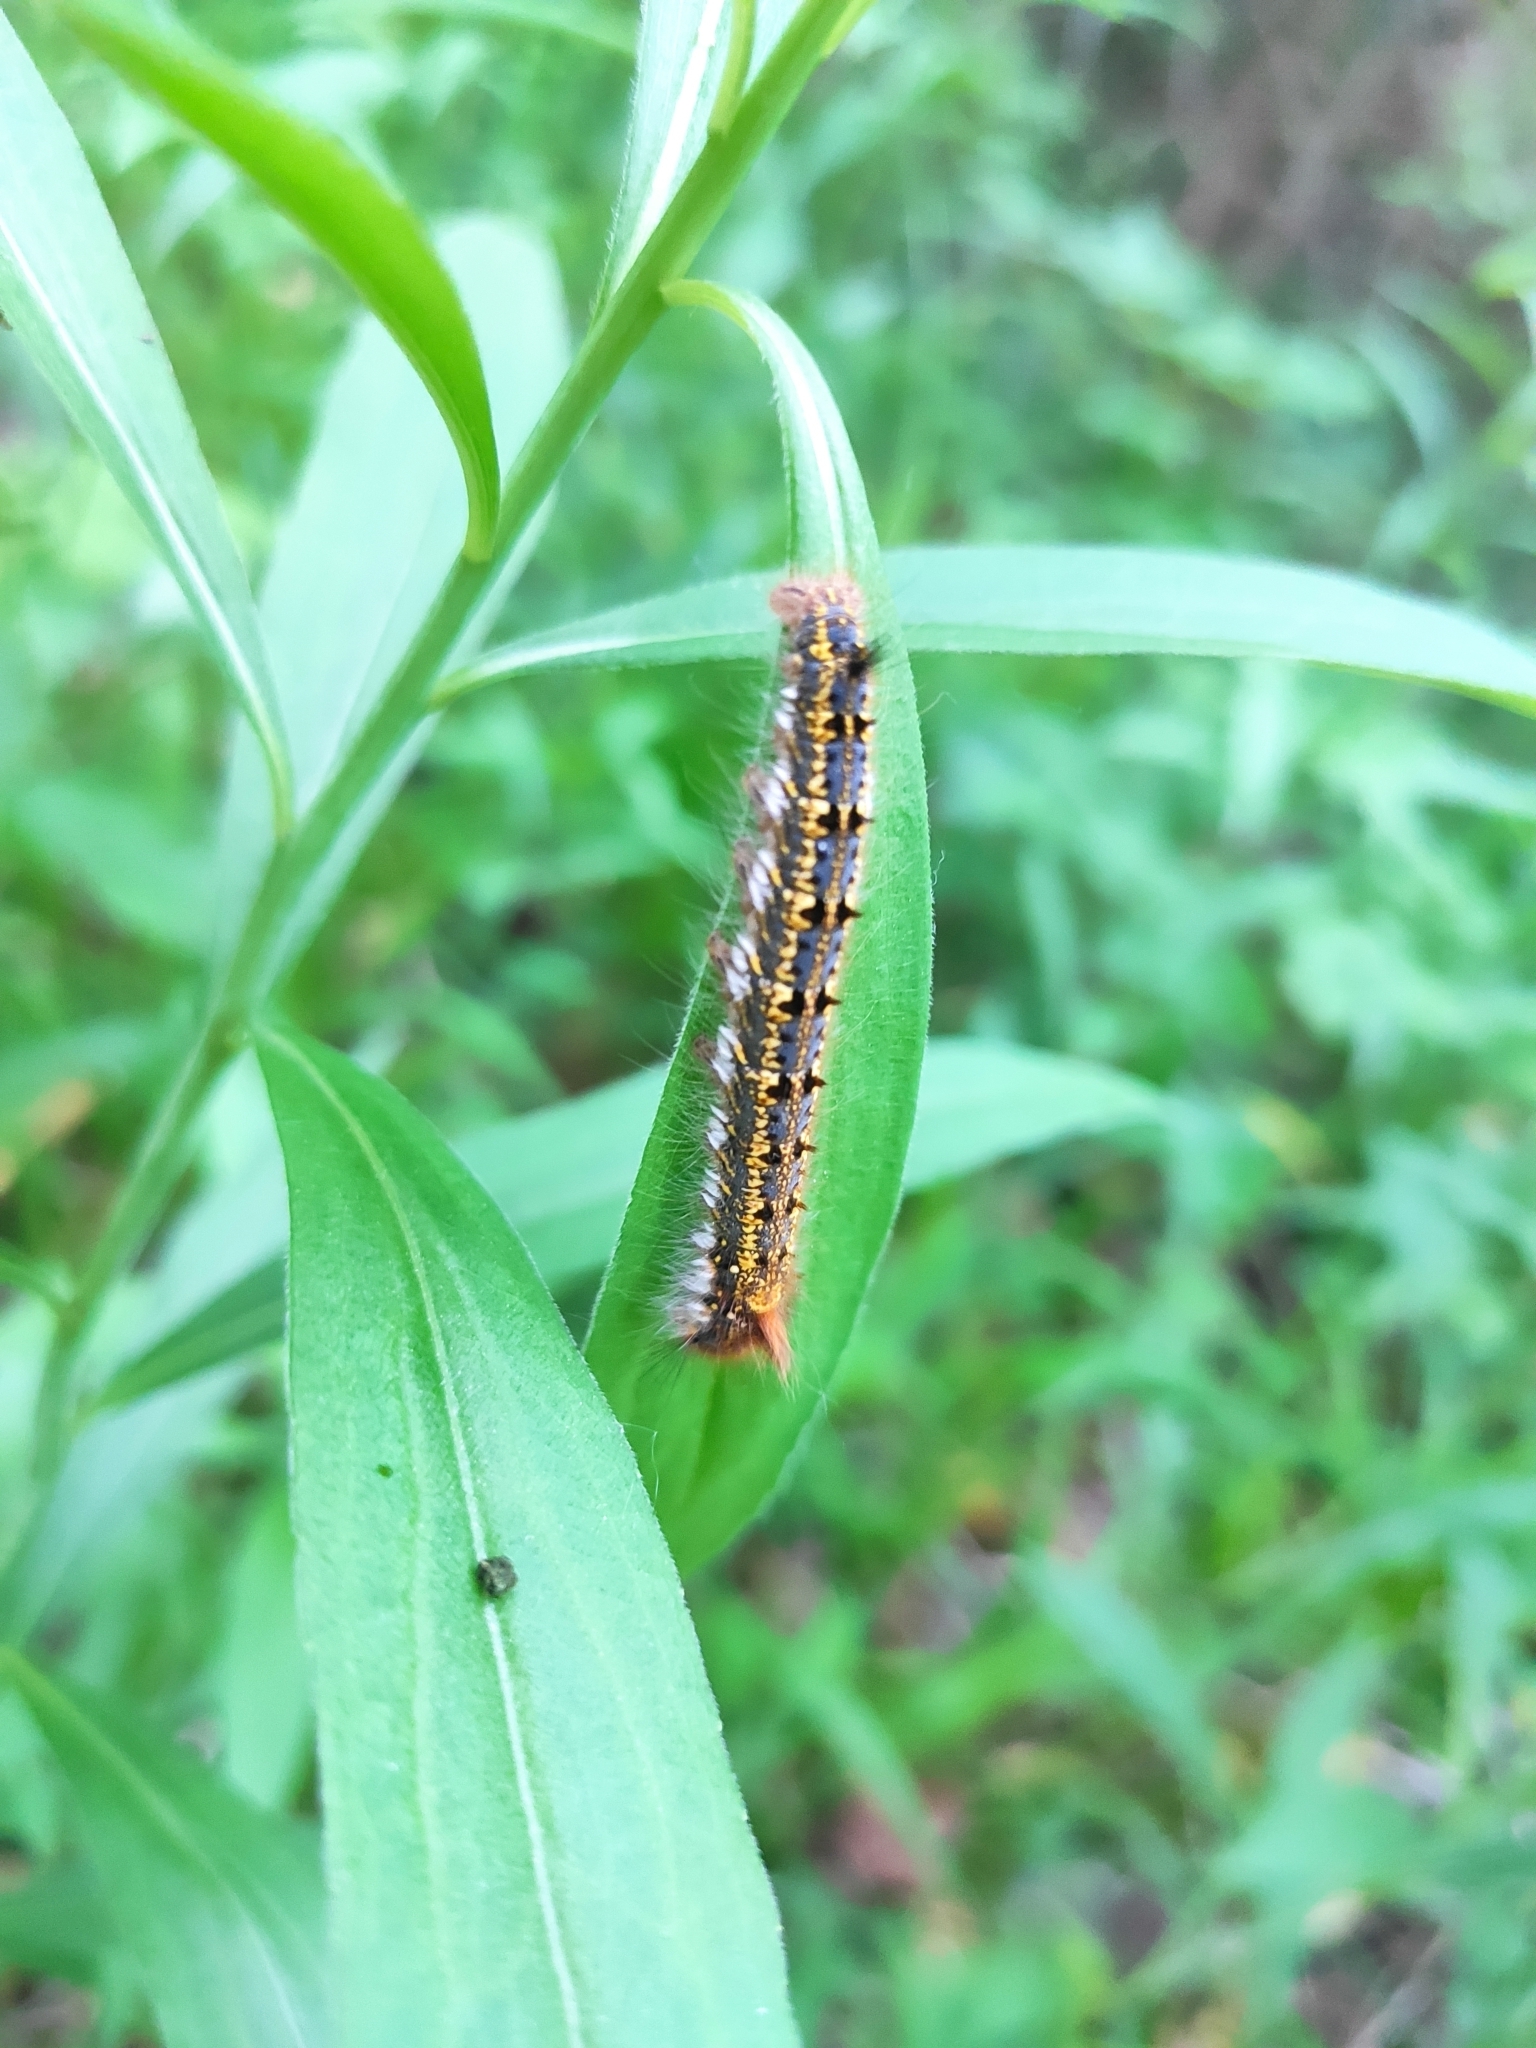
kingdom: Animalia
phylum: Arthropoda
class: Insecta
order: Lepidoptera
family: Lasiocampidae
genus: Euthrix
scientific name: Euthrix potatoria
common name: Drinker
